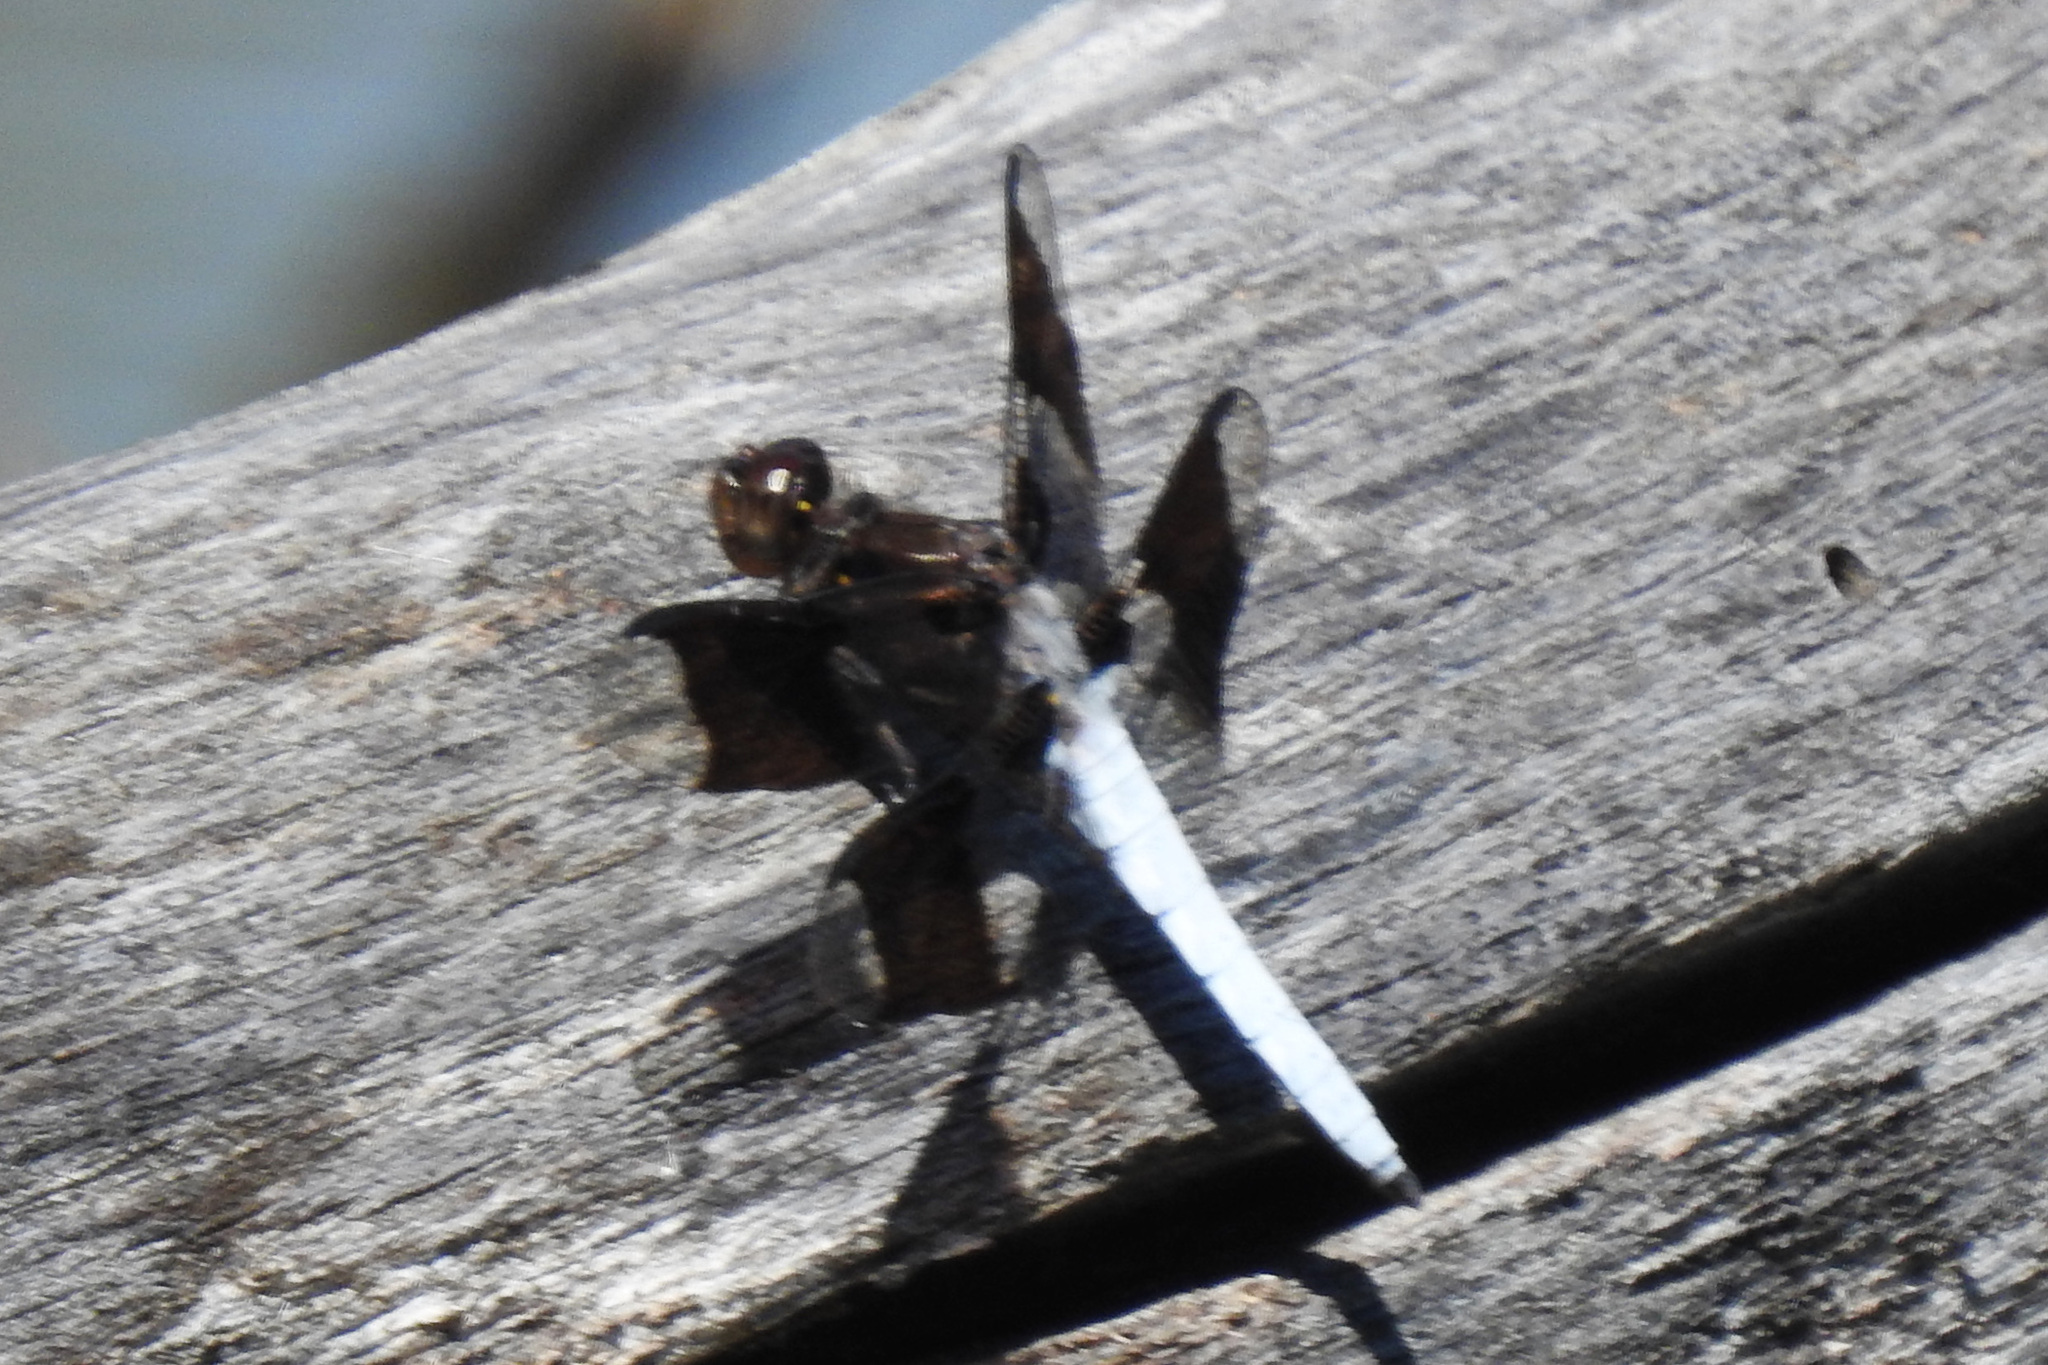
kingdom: Animalia
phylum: Arthropoda
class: Insecta
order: Odonata
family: Libellulidae
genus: Plathemis
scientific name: Plathemis lydia
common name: Common whitetail
